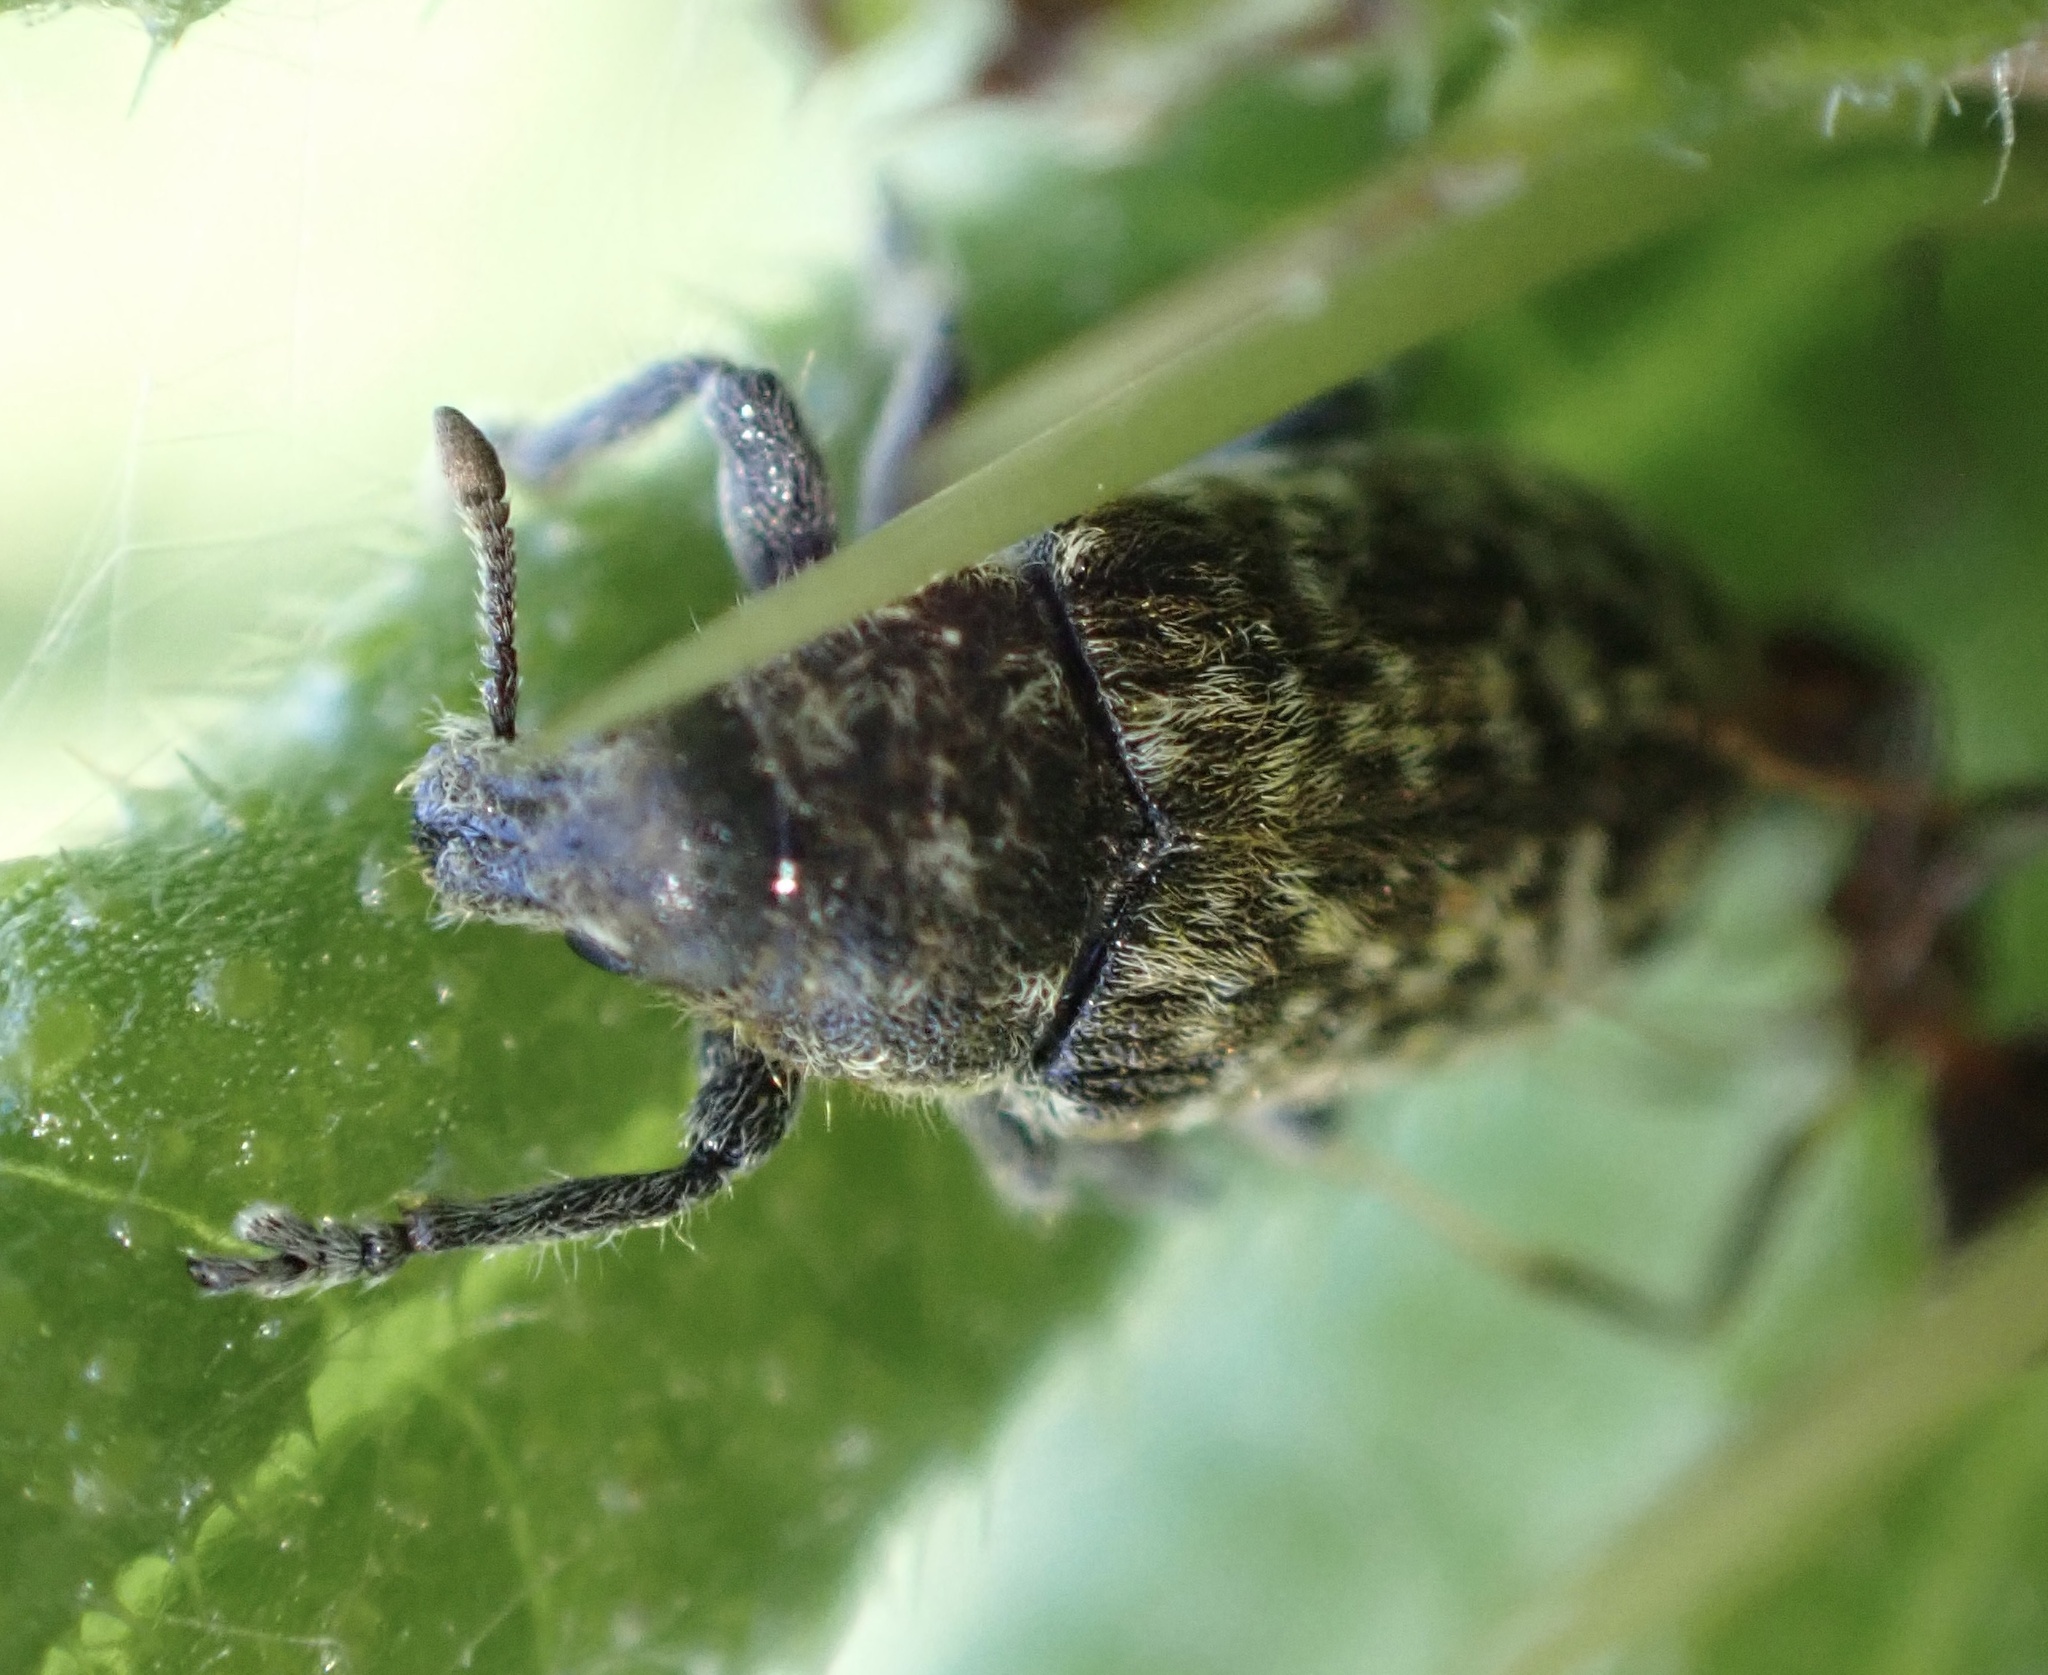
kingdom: Animalia
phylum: Arthropoda
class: Insecta
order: Coleoptera
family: Curculionidae
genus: Rhinocyllus
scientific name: Rhinocyllus conicus
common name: Weevil
